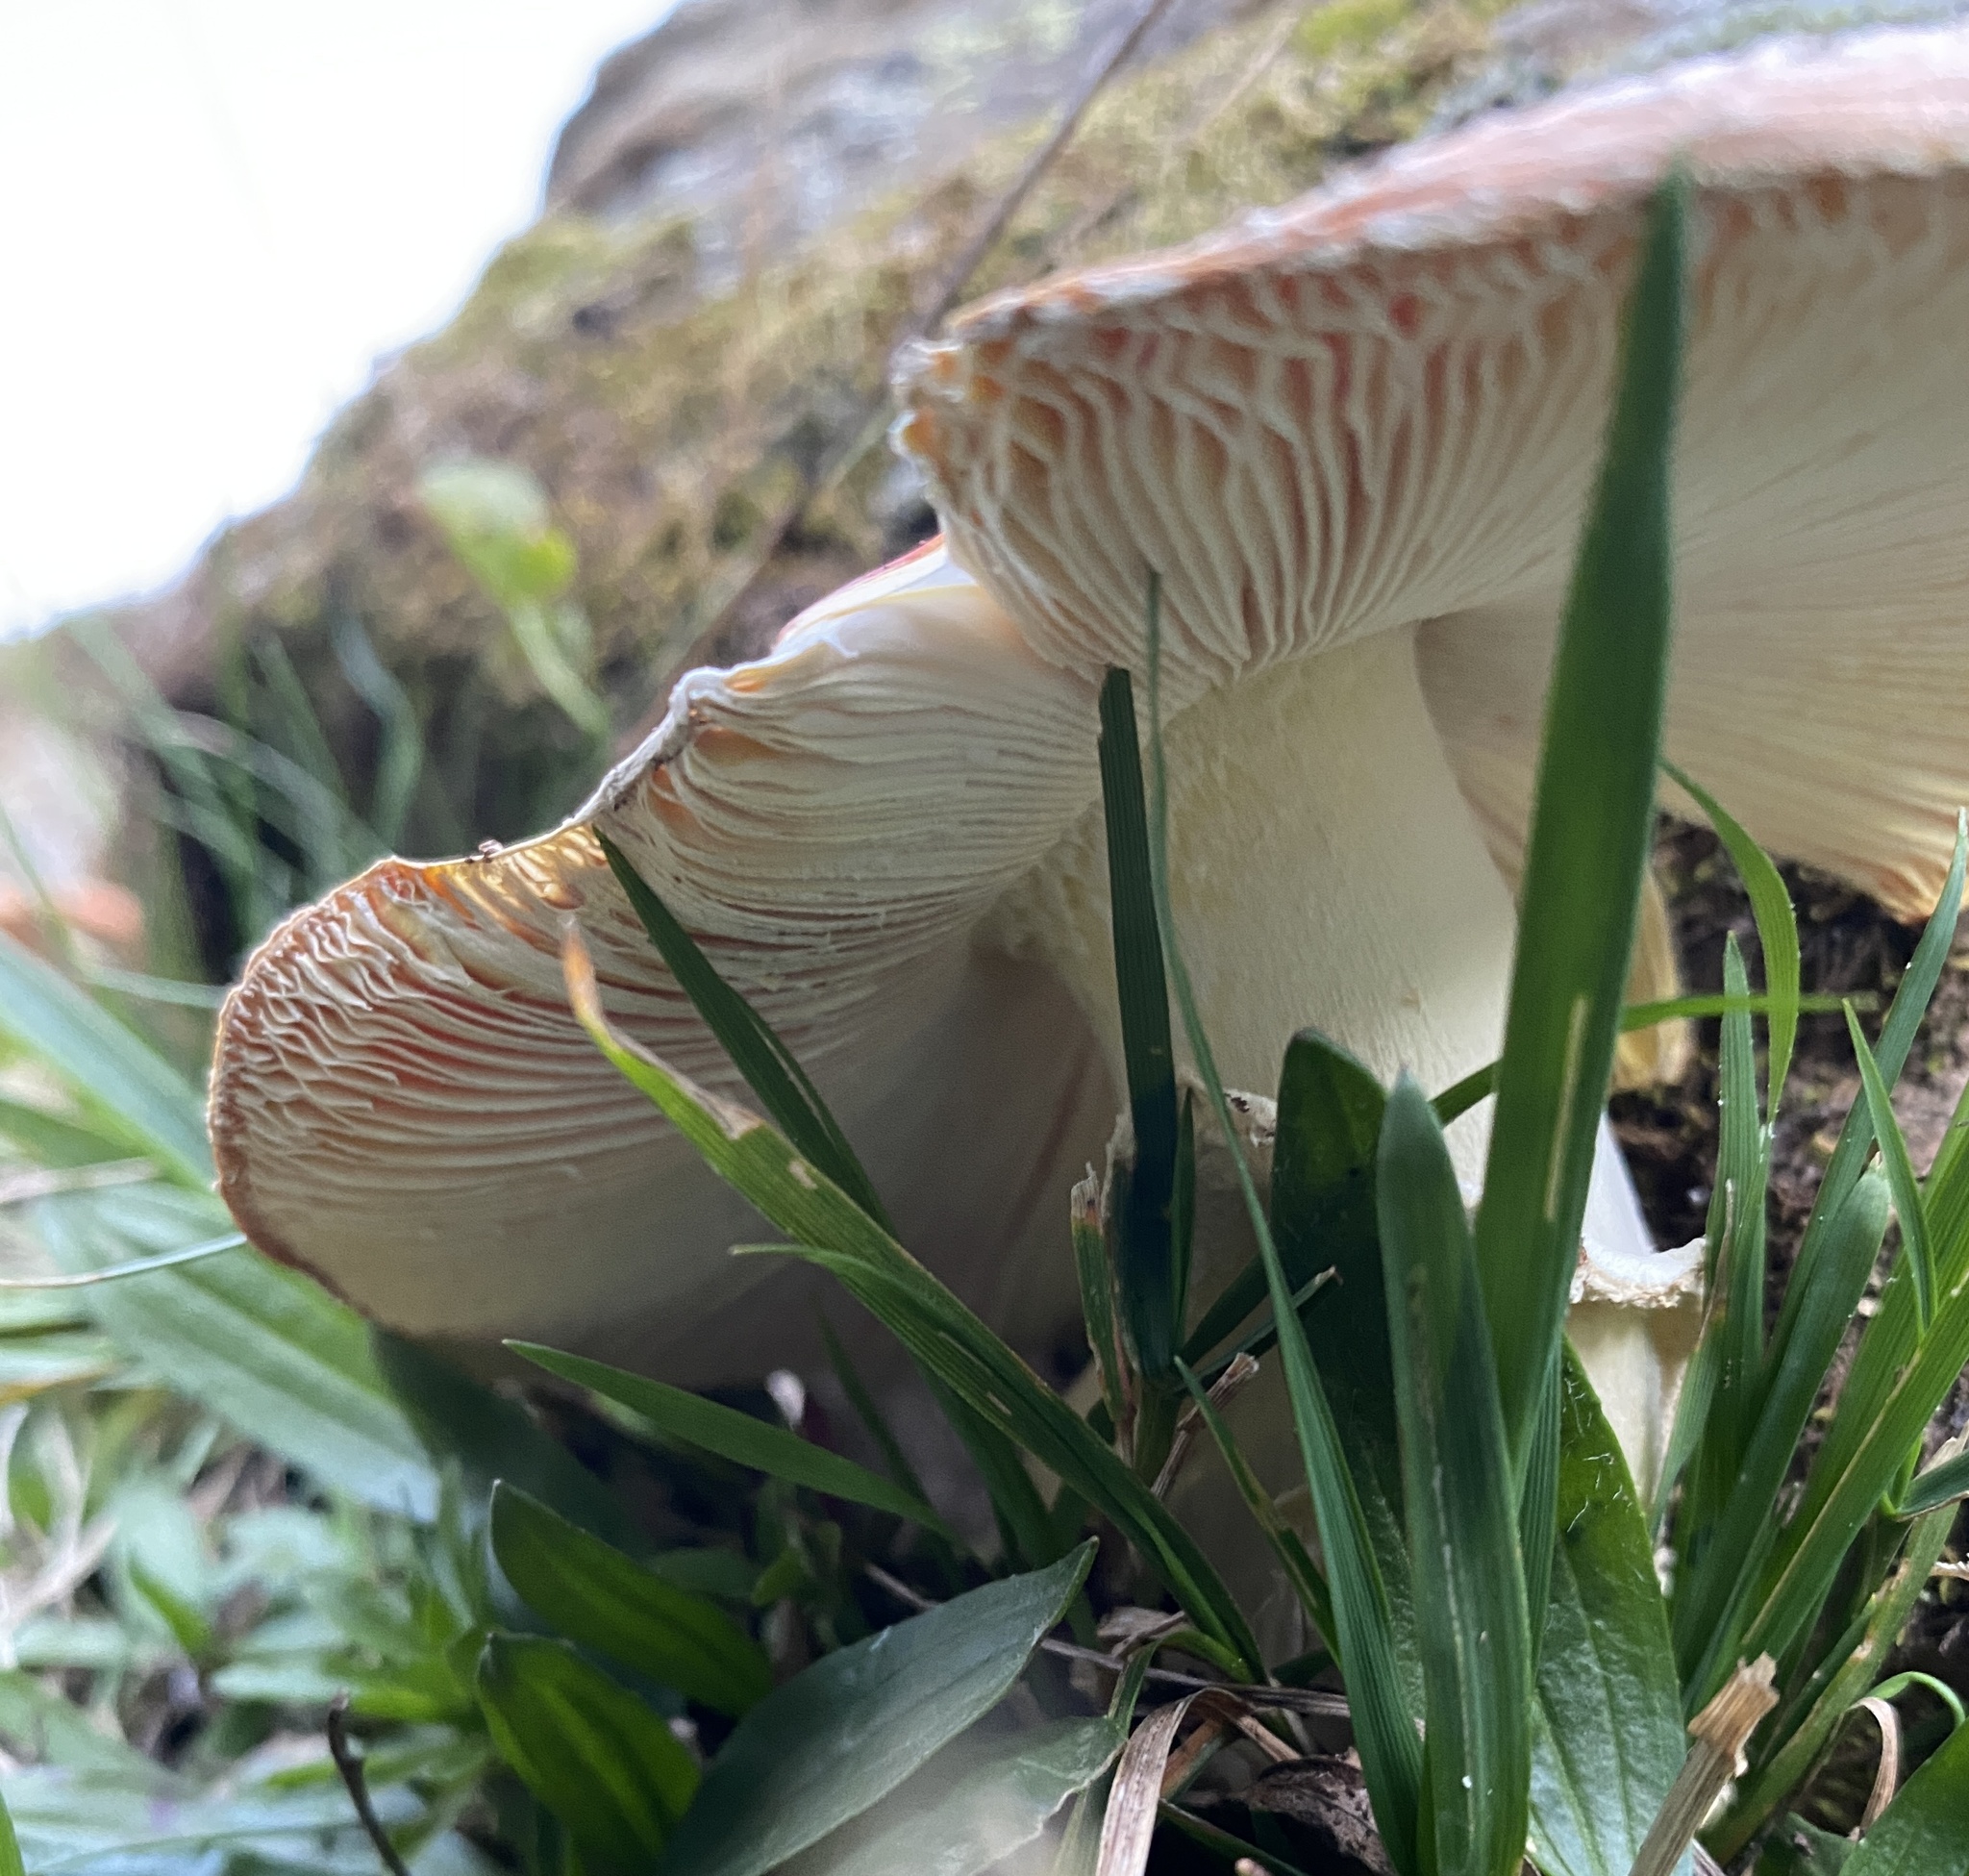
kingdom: Fungi
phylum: Basidiomycota
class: Agaricomycetes
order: Agaricales
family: Amanitaceae
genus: Amanita
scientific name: Amanita muscaria
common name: Fly agaric
